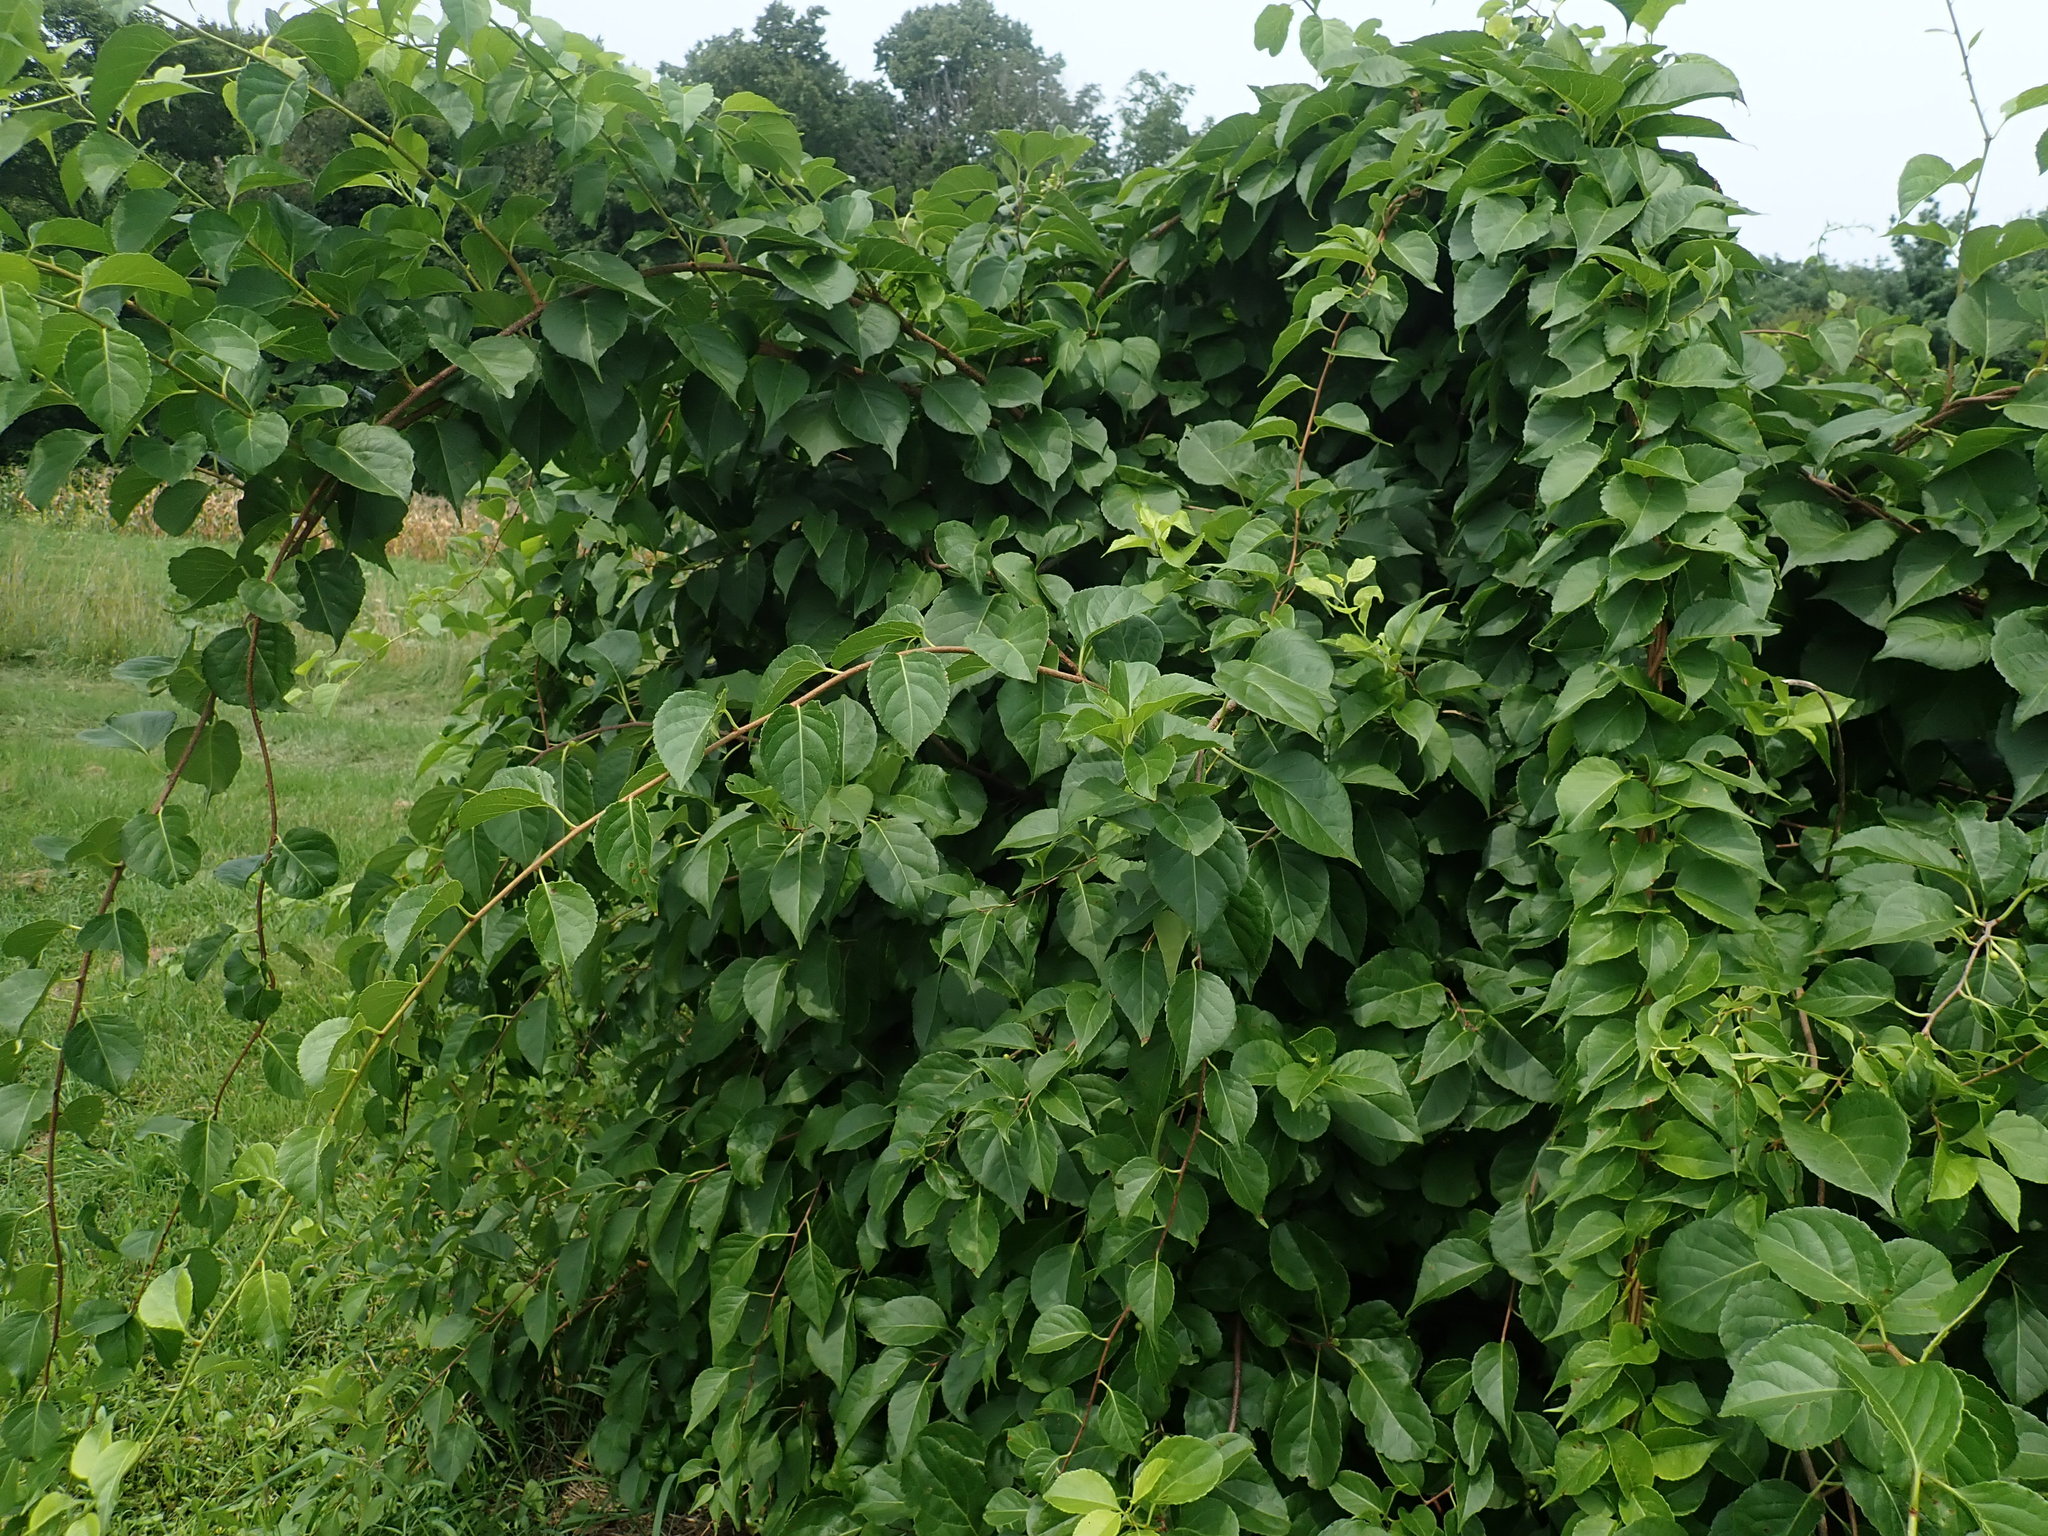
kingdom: Plantae
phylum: Tracheophyta
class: Magnoliopsida
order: Celastrales
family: Celastraceae
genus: Celastrus
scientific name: Celastrus orbiculatus
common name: Oriental bittersweet
